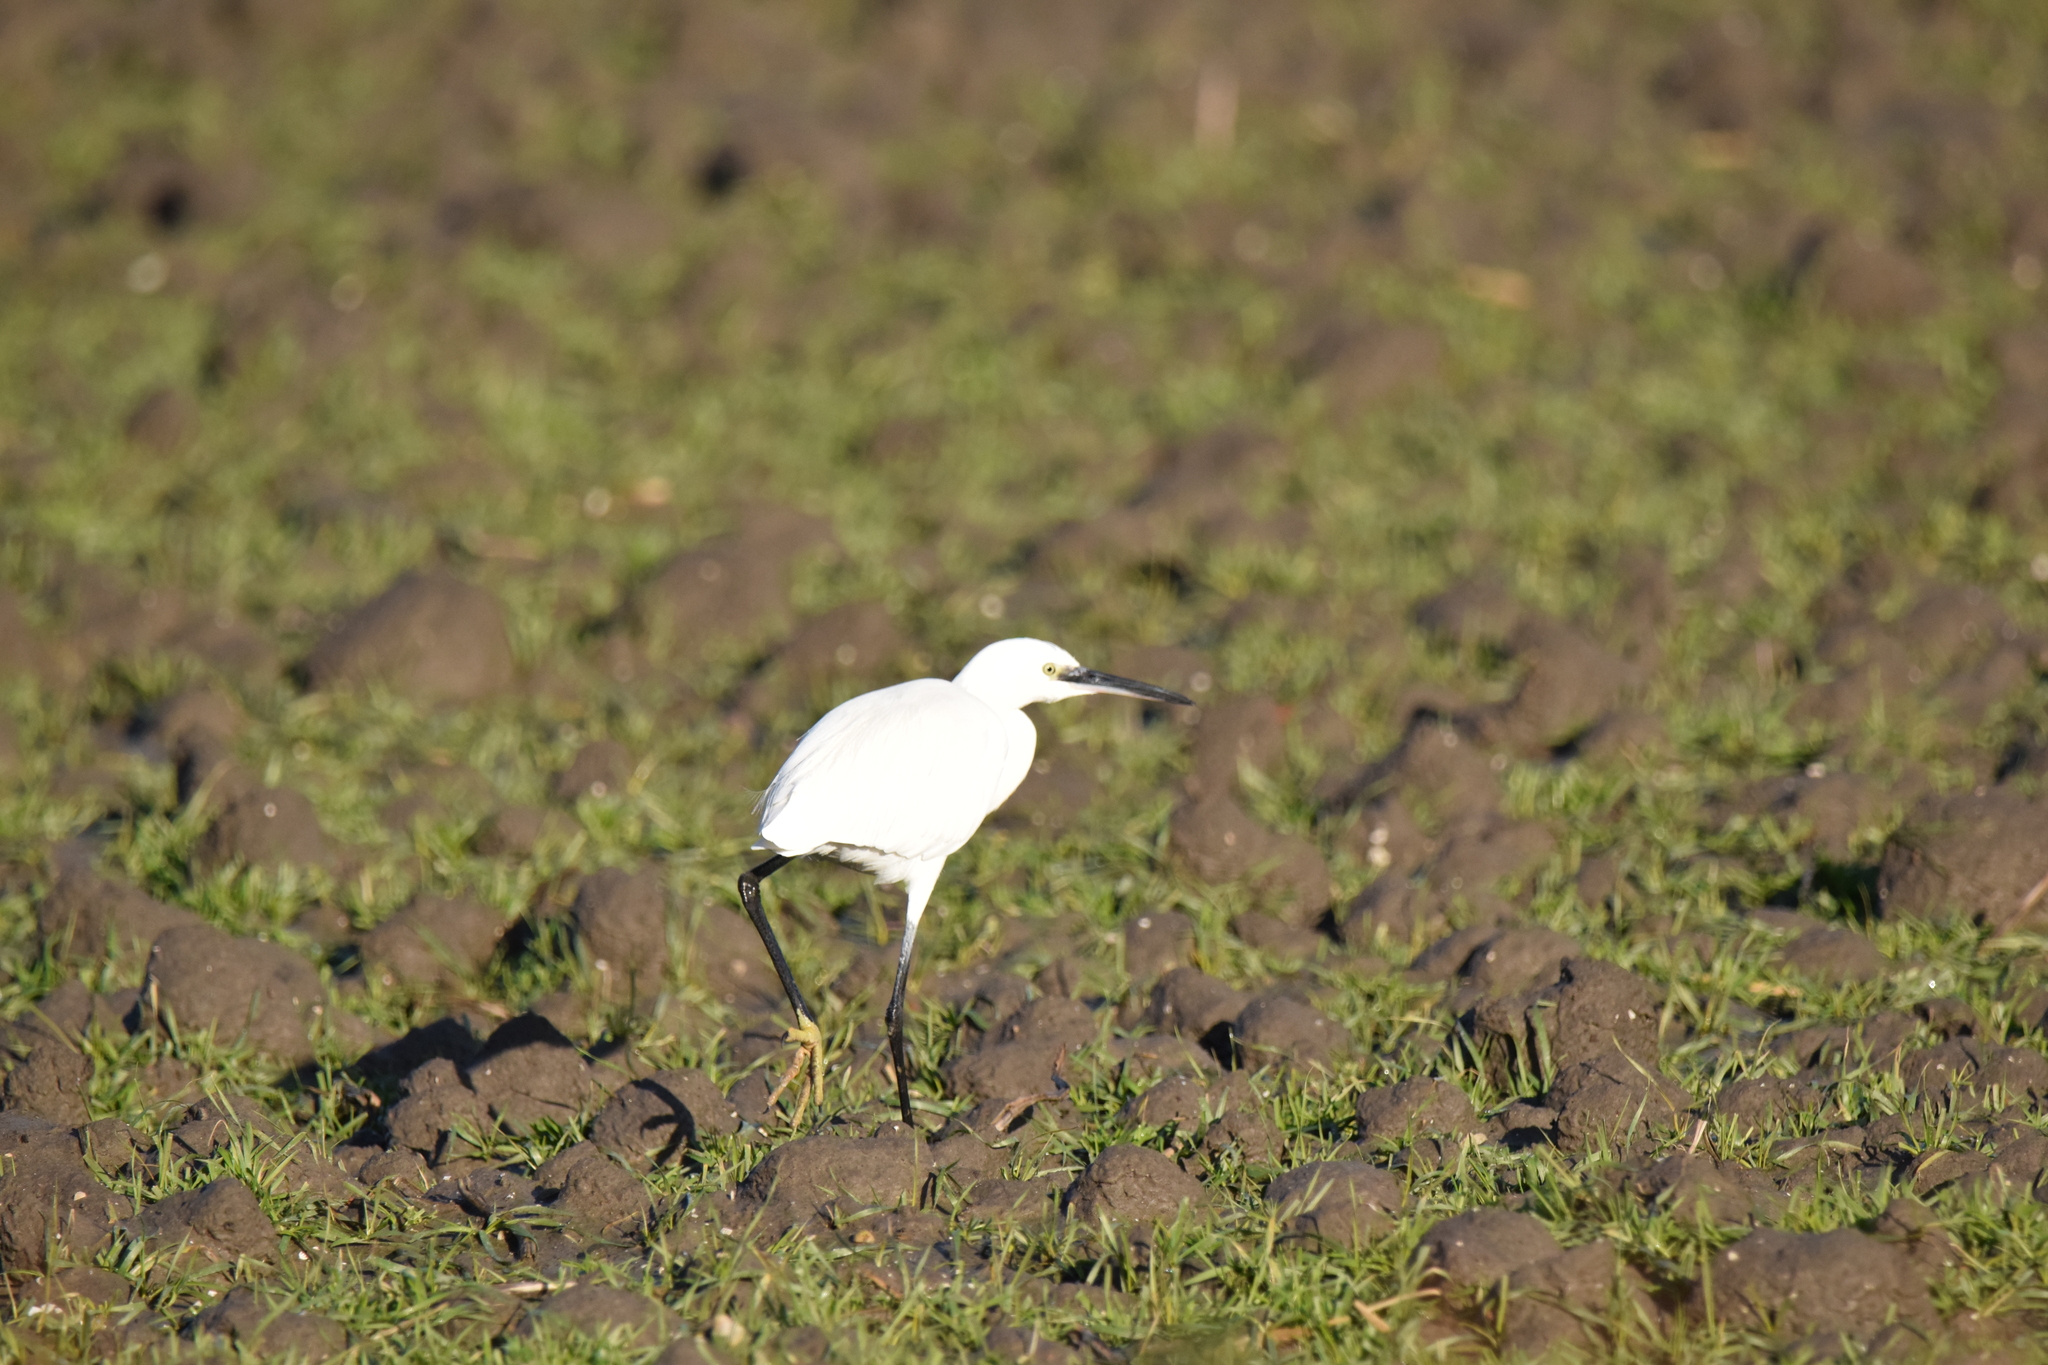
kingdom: Animalia
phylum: Chordata
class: Aves
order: Pelecaniformes
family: Ardeidae
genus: Egretta
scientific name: Egretta garzetta
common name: Little egret
